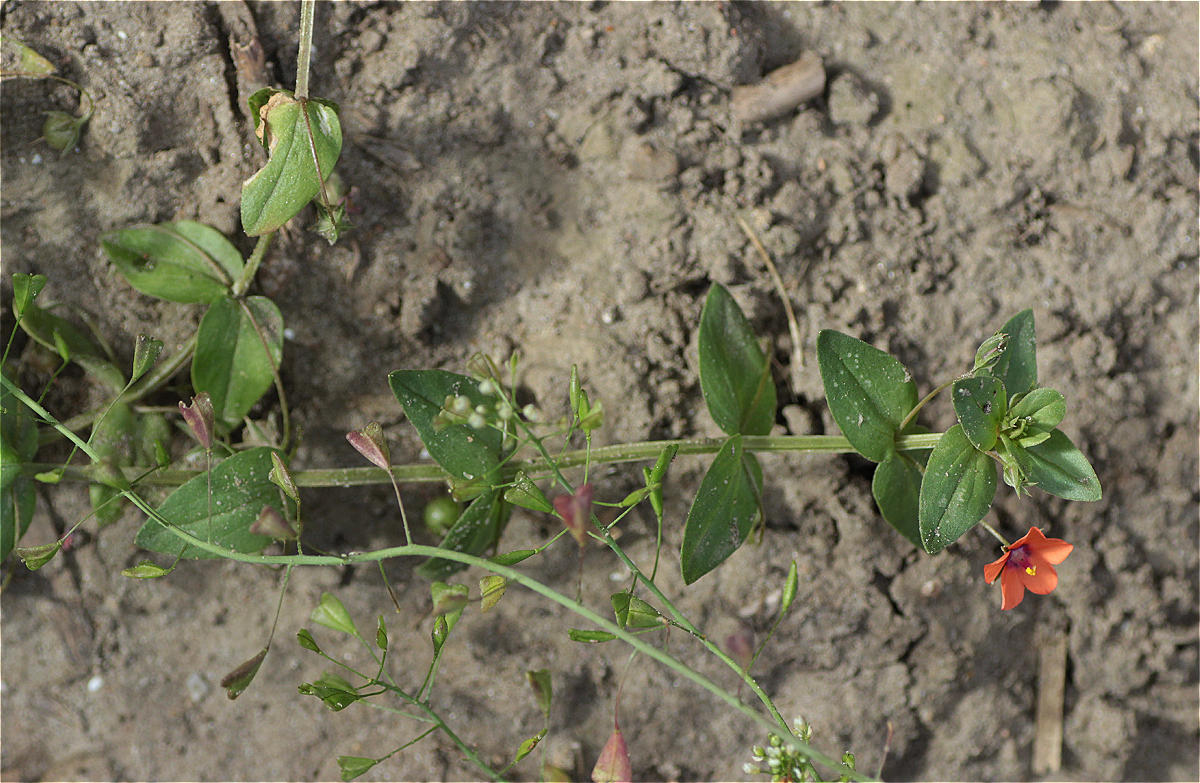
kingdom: Plantae
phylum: Tracheophyta
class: Magnoliopsida
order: Ericales
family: Primulaceae
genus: Lysimachia
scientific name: Lysimachia arvensis
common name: Scarlet pimpernel
